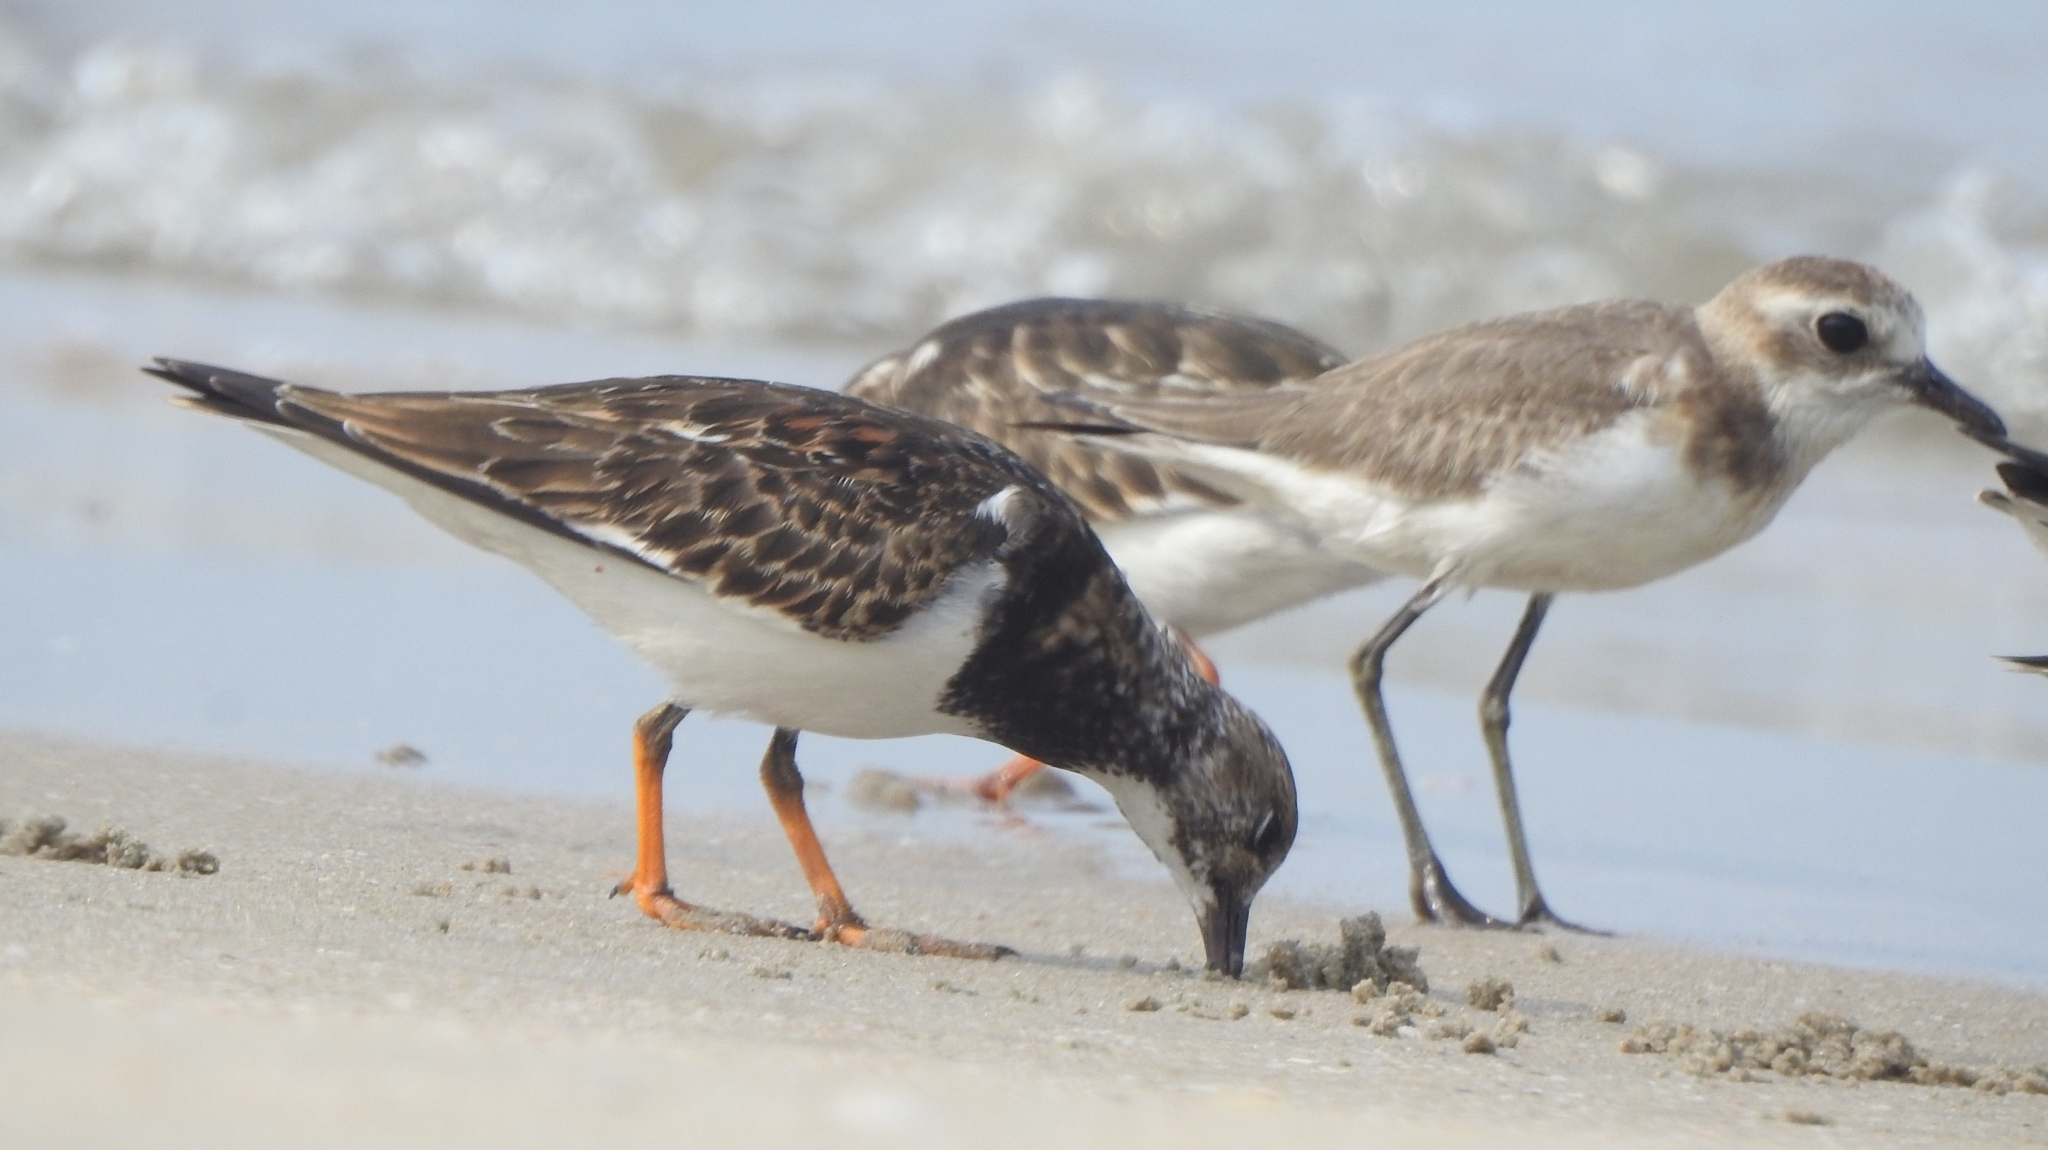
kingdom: Animalia
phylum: Chordata
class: Aves
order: Charadriiformes
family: Scolopacidae
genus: Arenaria
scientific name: Arenaria interpres
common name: Ruddy turnstone
